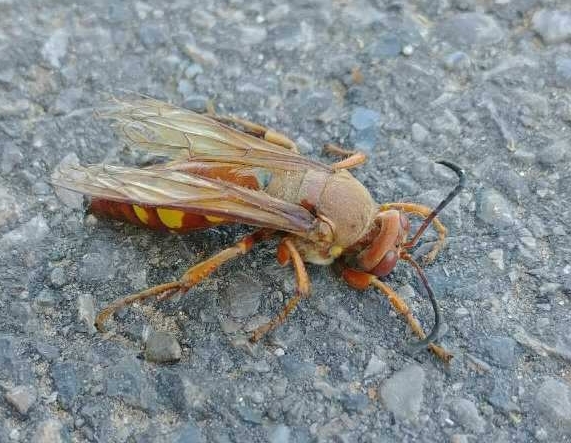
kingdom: Animalia
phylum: Arthropoda
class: Insecta
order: Hymenoptera
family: Crabronidae
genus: Sphecius
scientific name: Sphecius convallis
